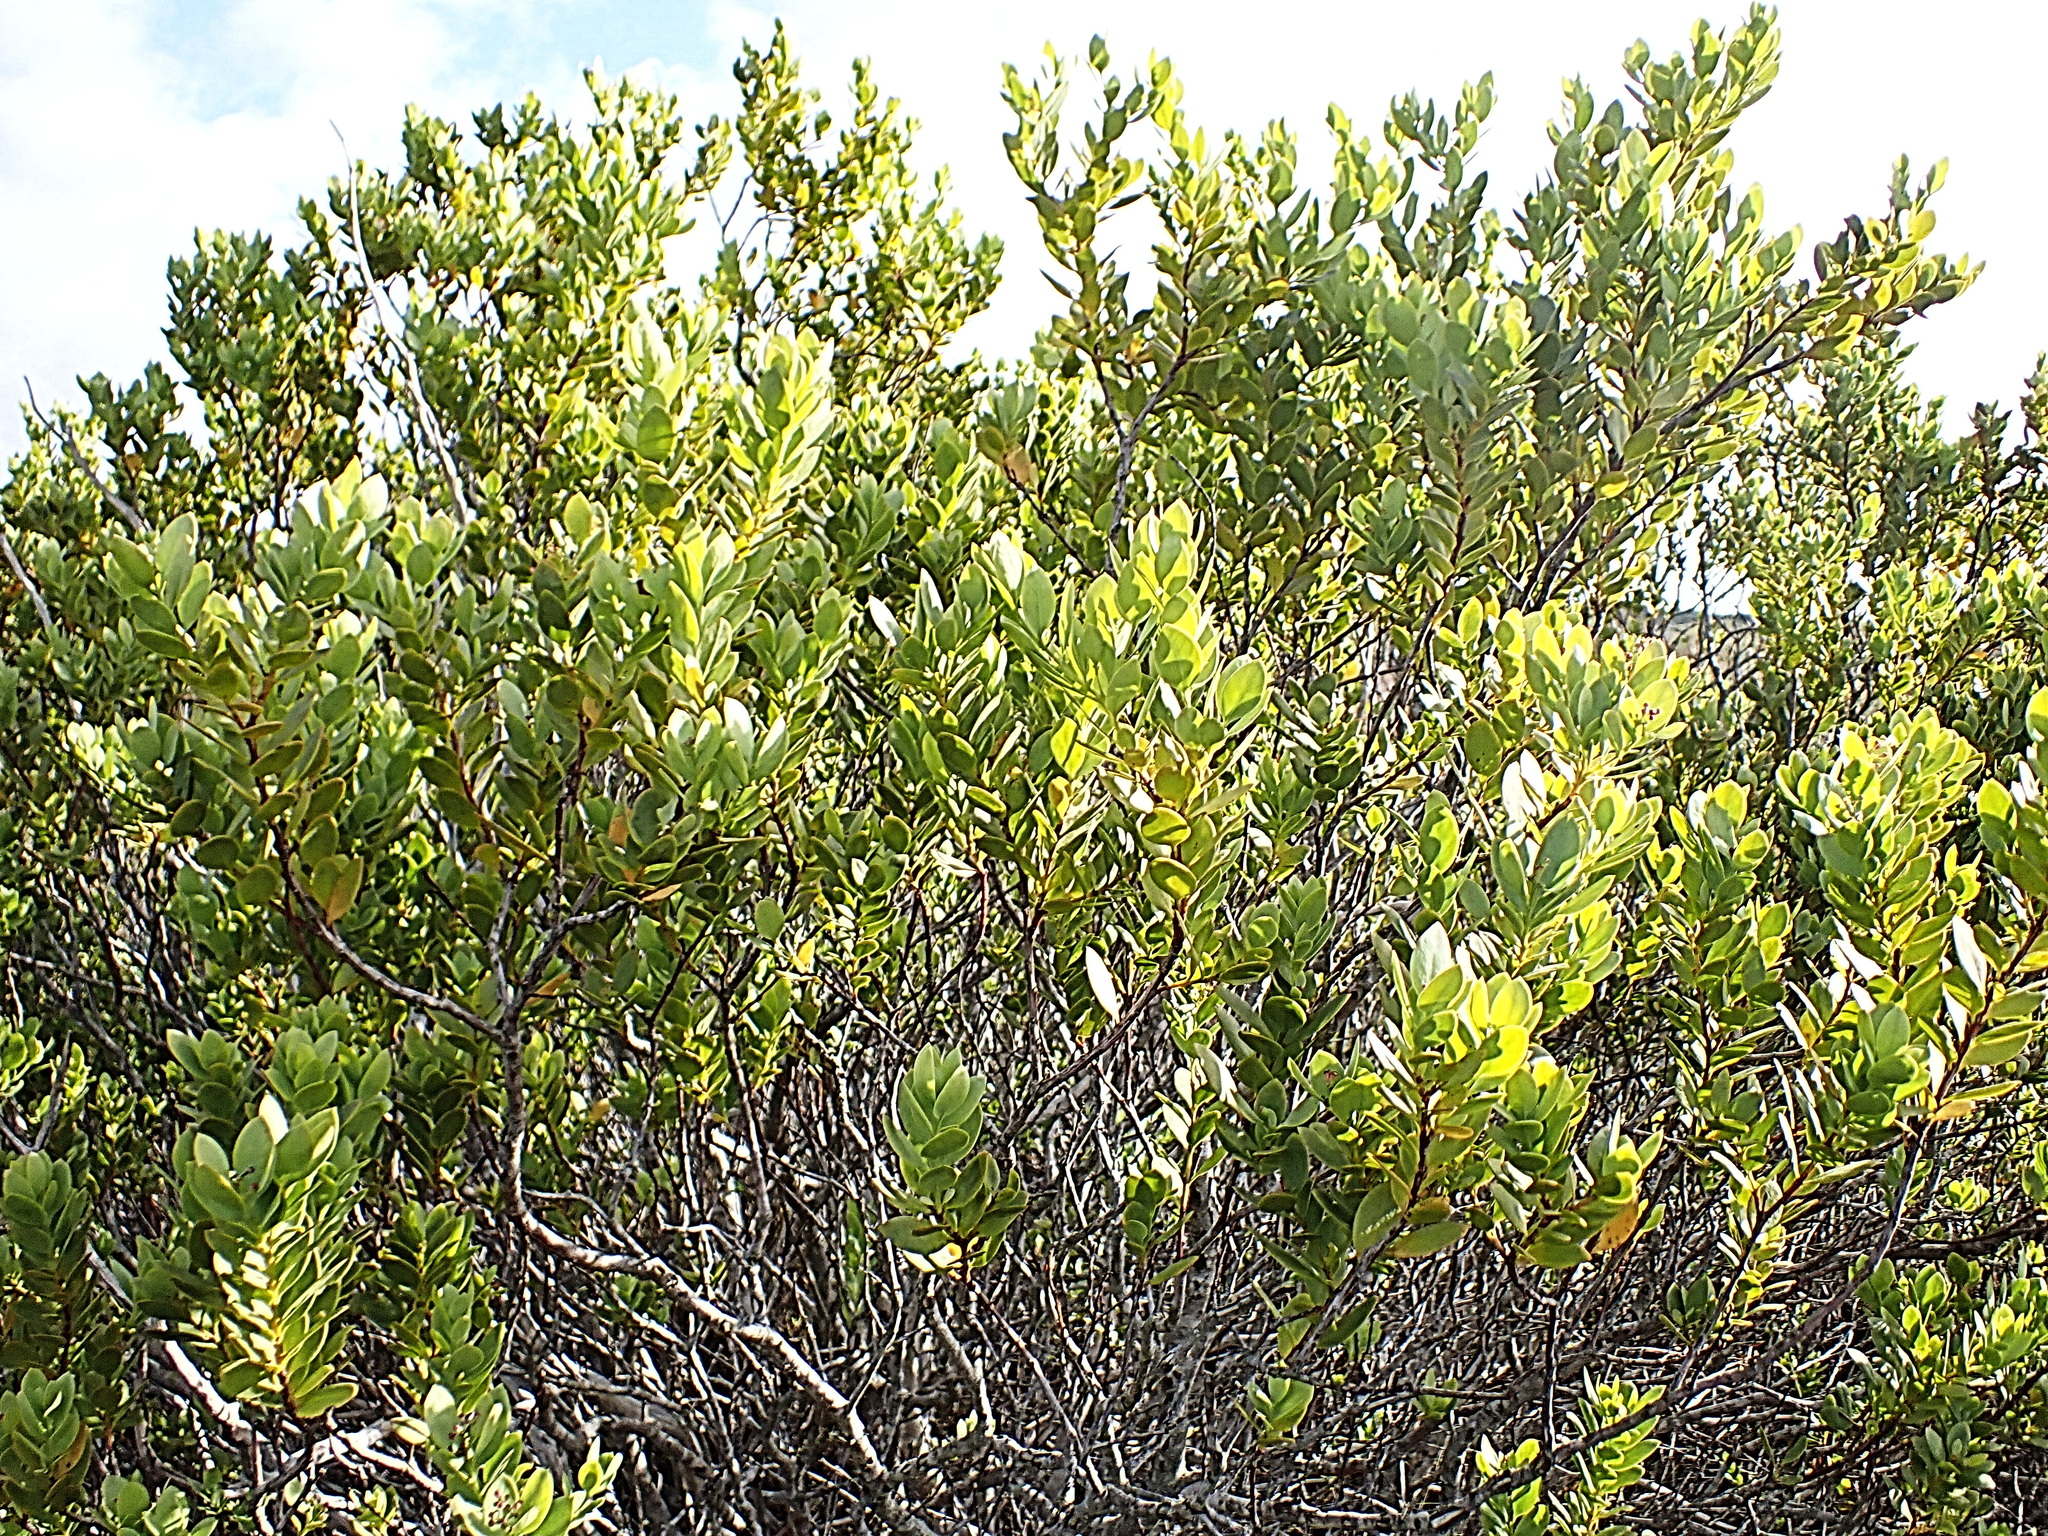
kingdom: Plantae
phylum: Tracheophyta
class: Magnoliopsida
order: Santalales
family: Santalaceae
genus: Osyris
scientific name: Osyris compressa
